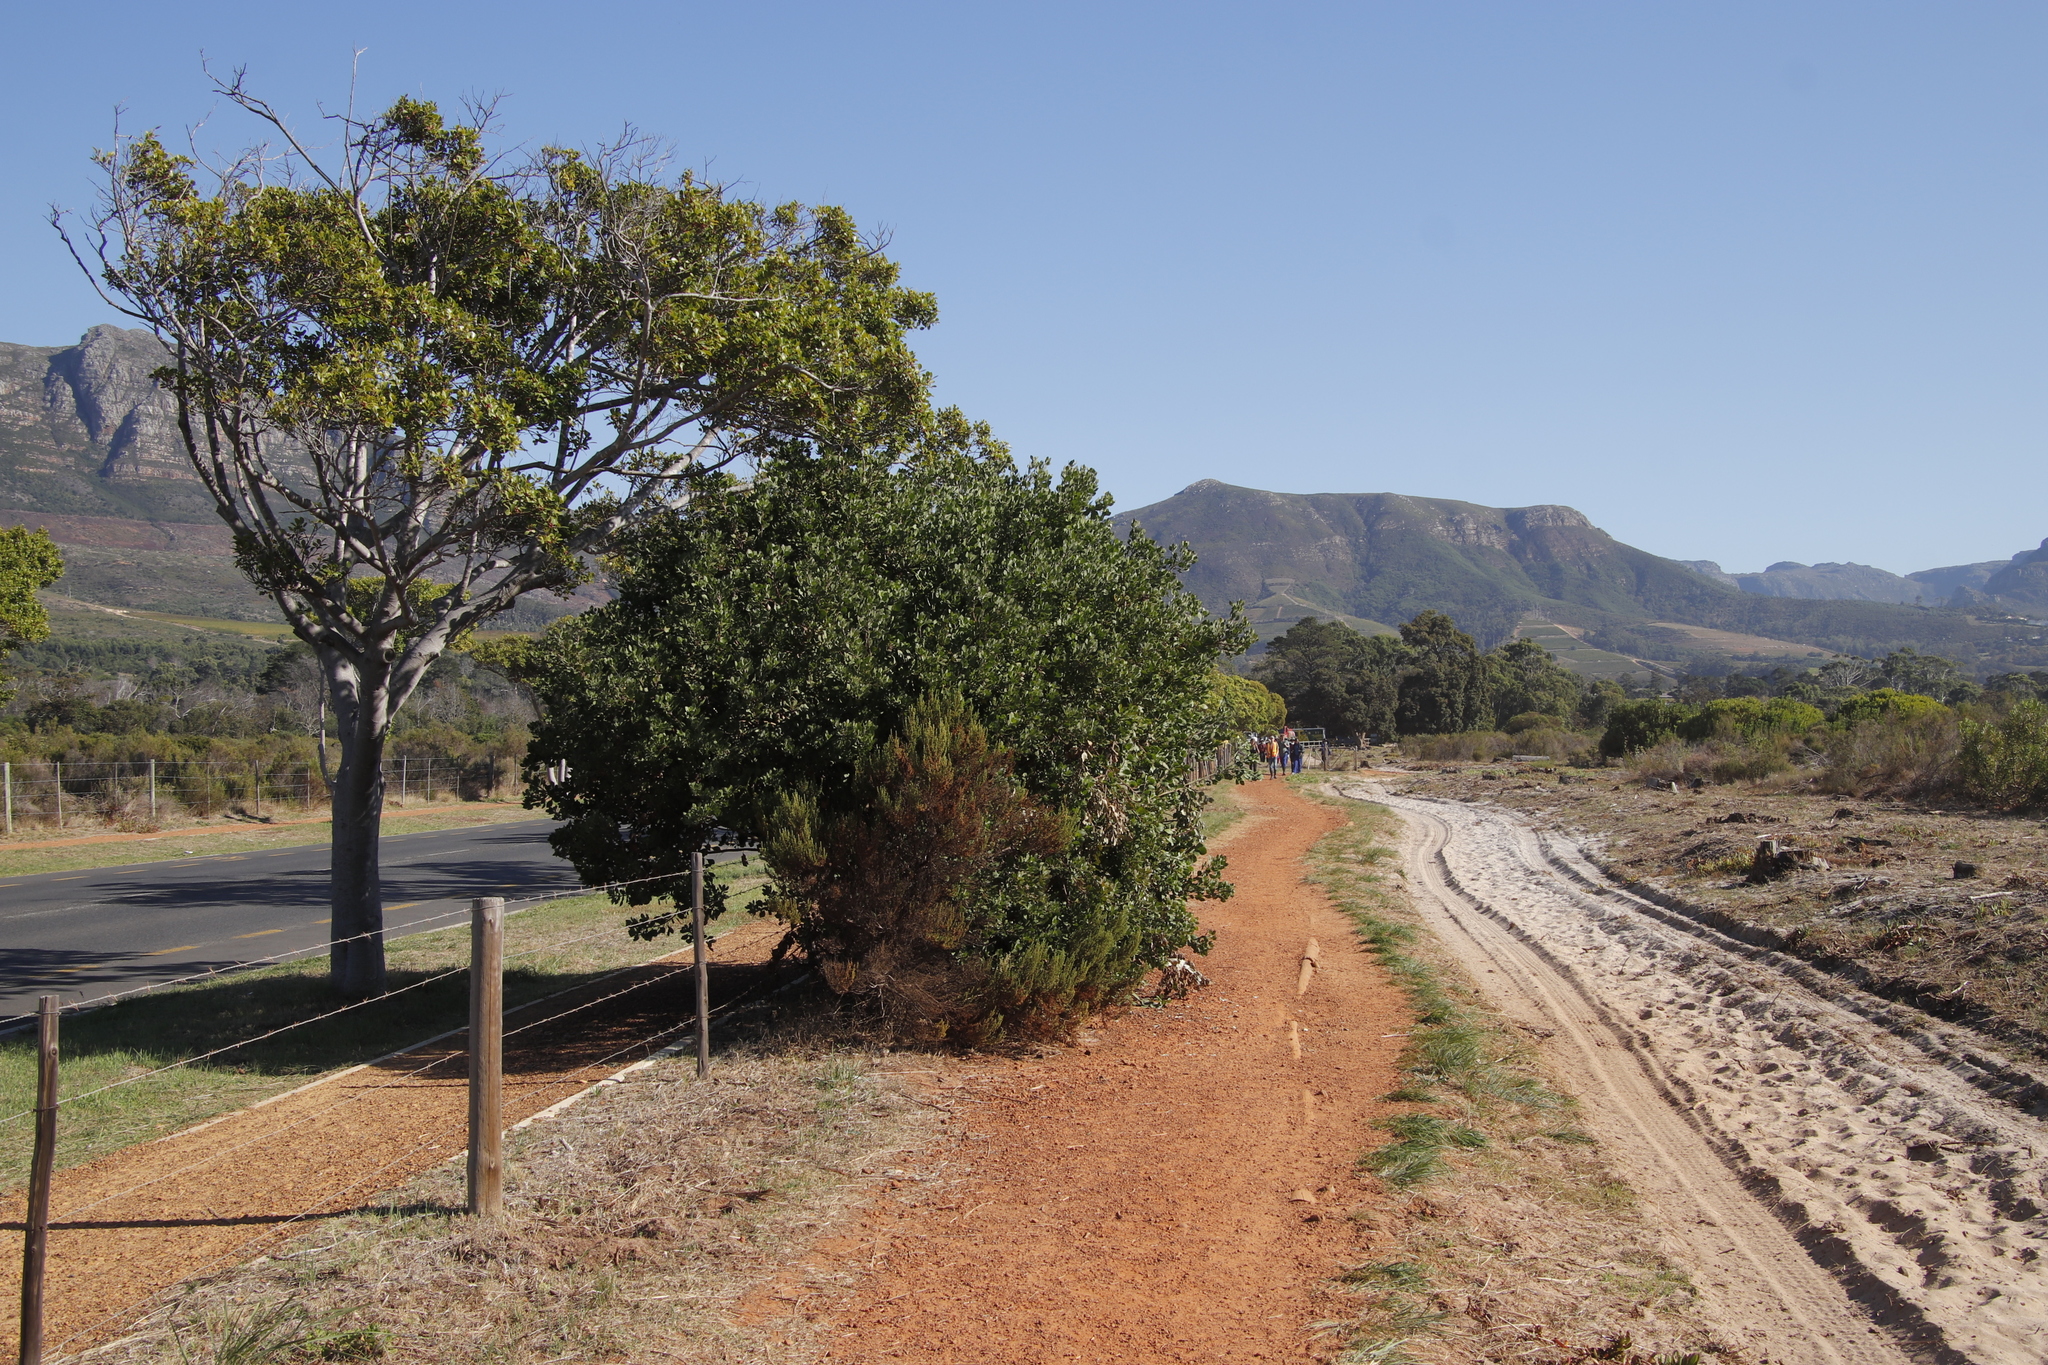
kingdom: Plantae
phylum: Tracheophyta
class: Magnoliopsida
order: Asterales
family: Asteraceae
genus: Osteospermum
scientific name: Osteospermum moniliferum
